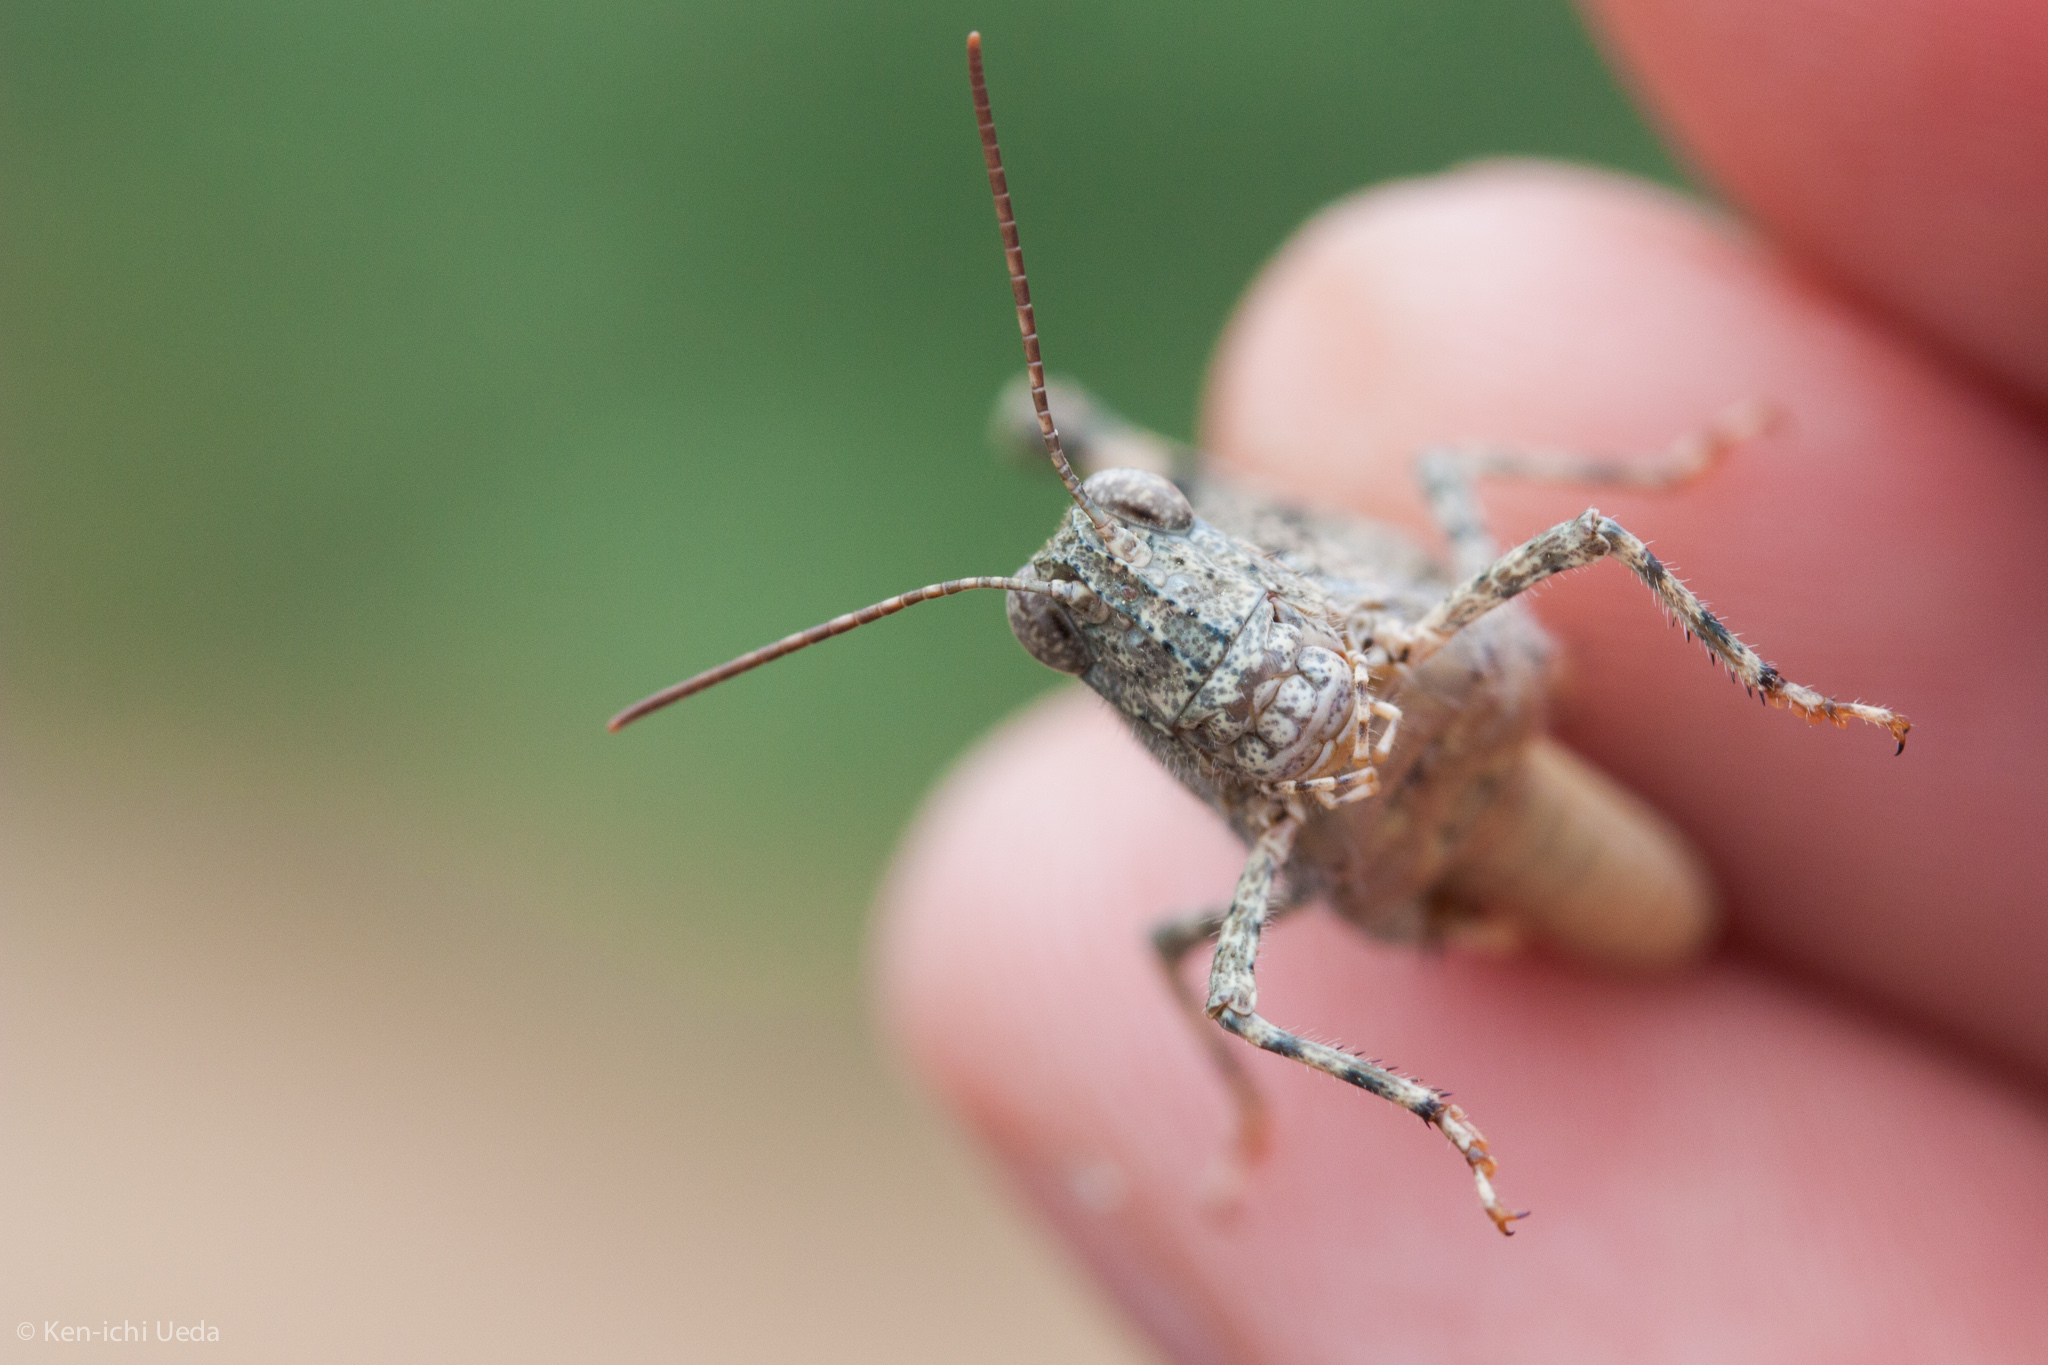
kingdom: Animalia
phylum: Arthropoda
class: Insecta
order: Orthoptera
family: Acrididae
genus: Trimerotropis
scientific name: Trimerotropis pallidipennis
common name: Pallid-winged grasshopper
